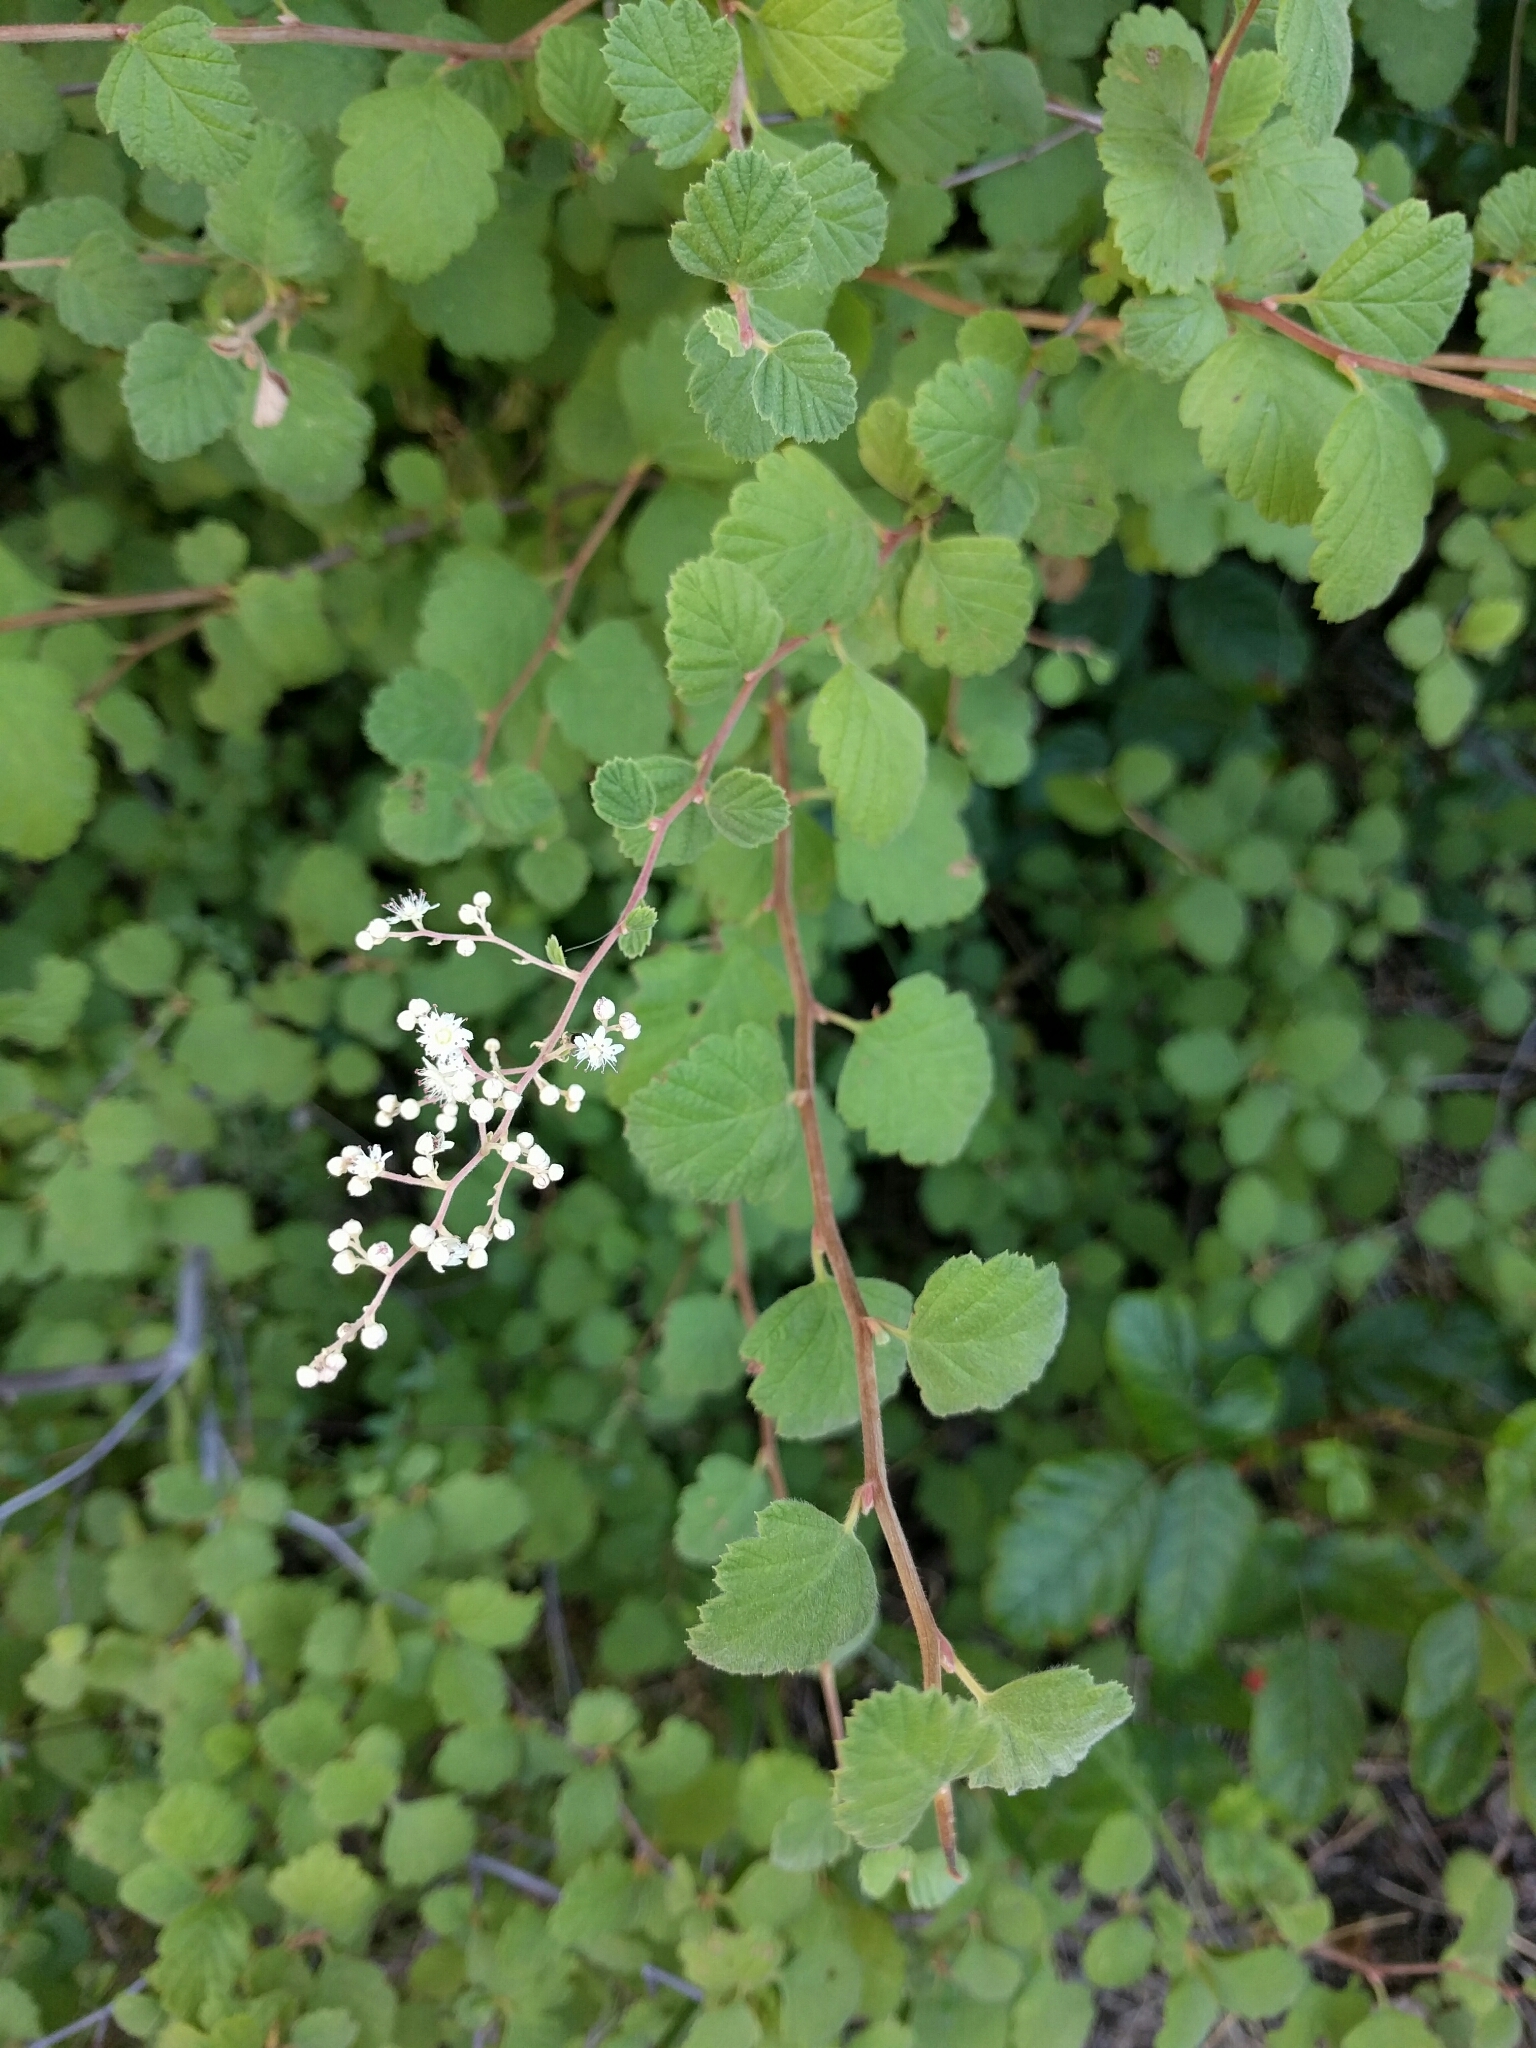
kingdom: Plantae
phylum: Tracheophyta
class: Magnoliopsida
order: Rosales
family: Rosaceae
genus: Holodiscus
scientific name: Holodiscus discolor
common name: Oceanspray
